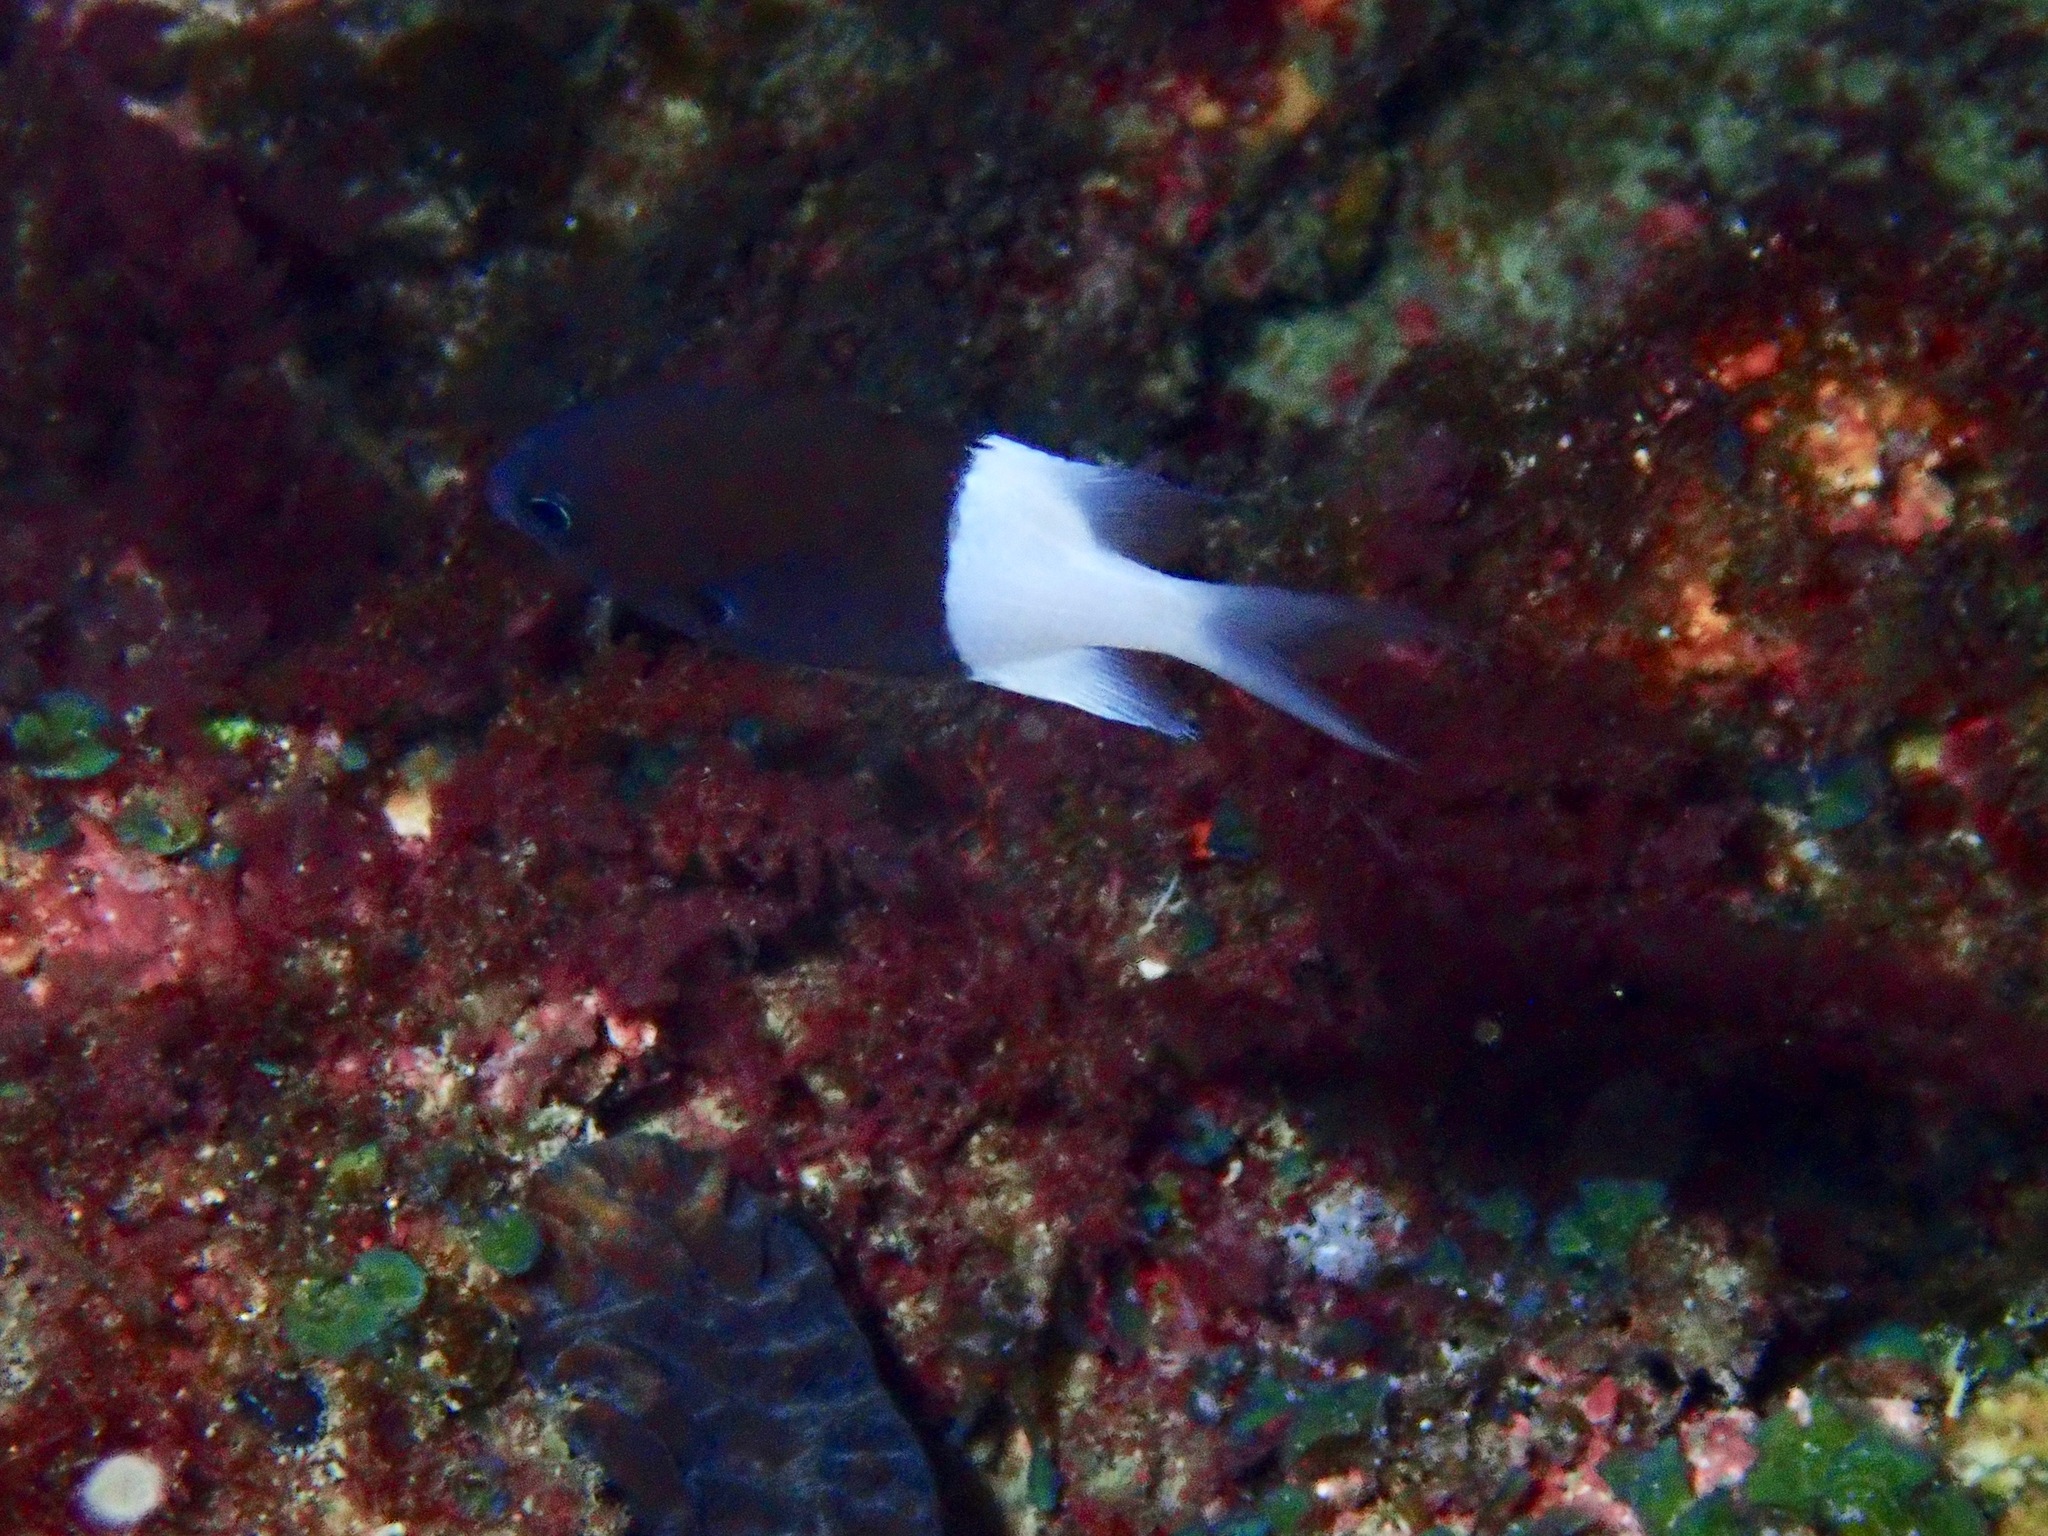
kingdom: Animalia
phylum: Chordata
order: Perciformes
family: Pomacentridae
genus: Chromis
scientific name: Chromis iomelas
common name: Half and half chromis
